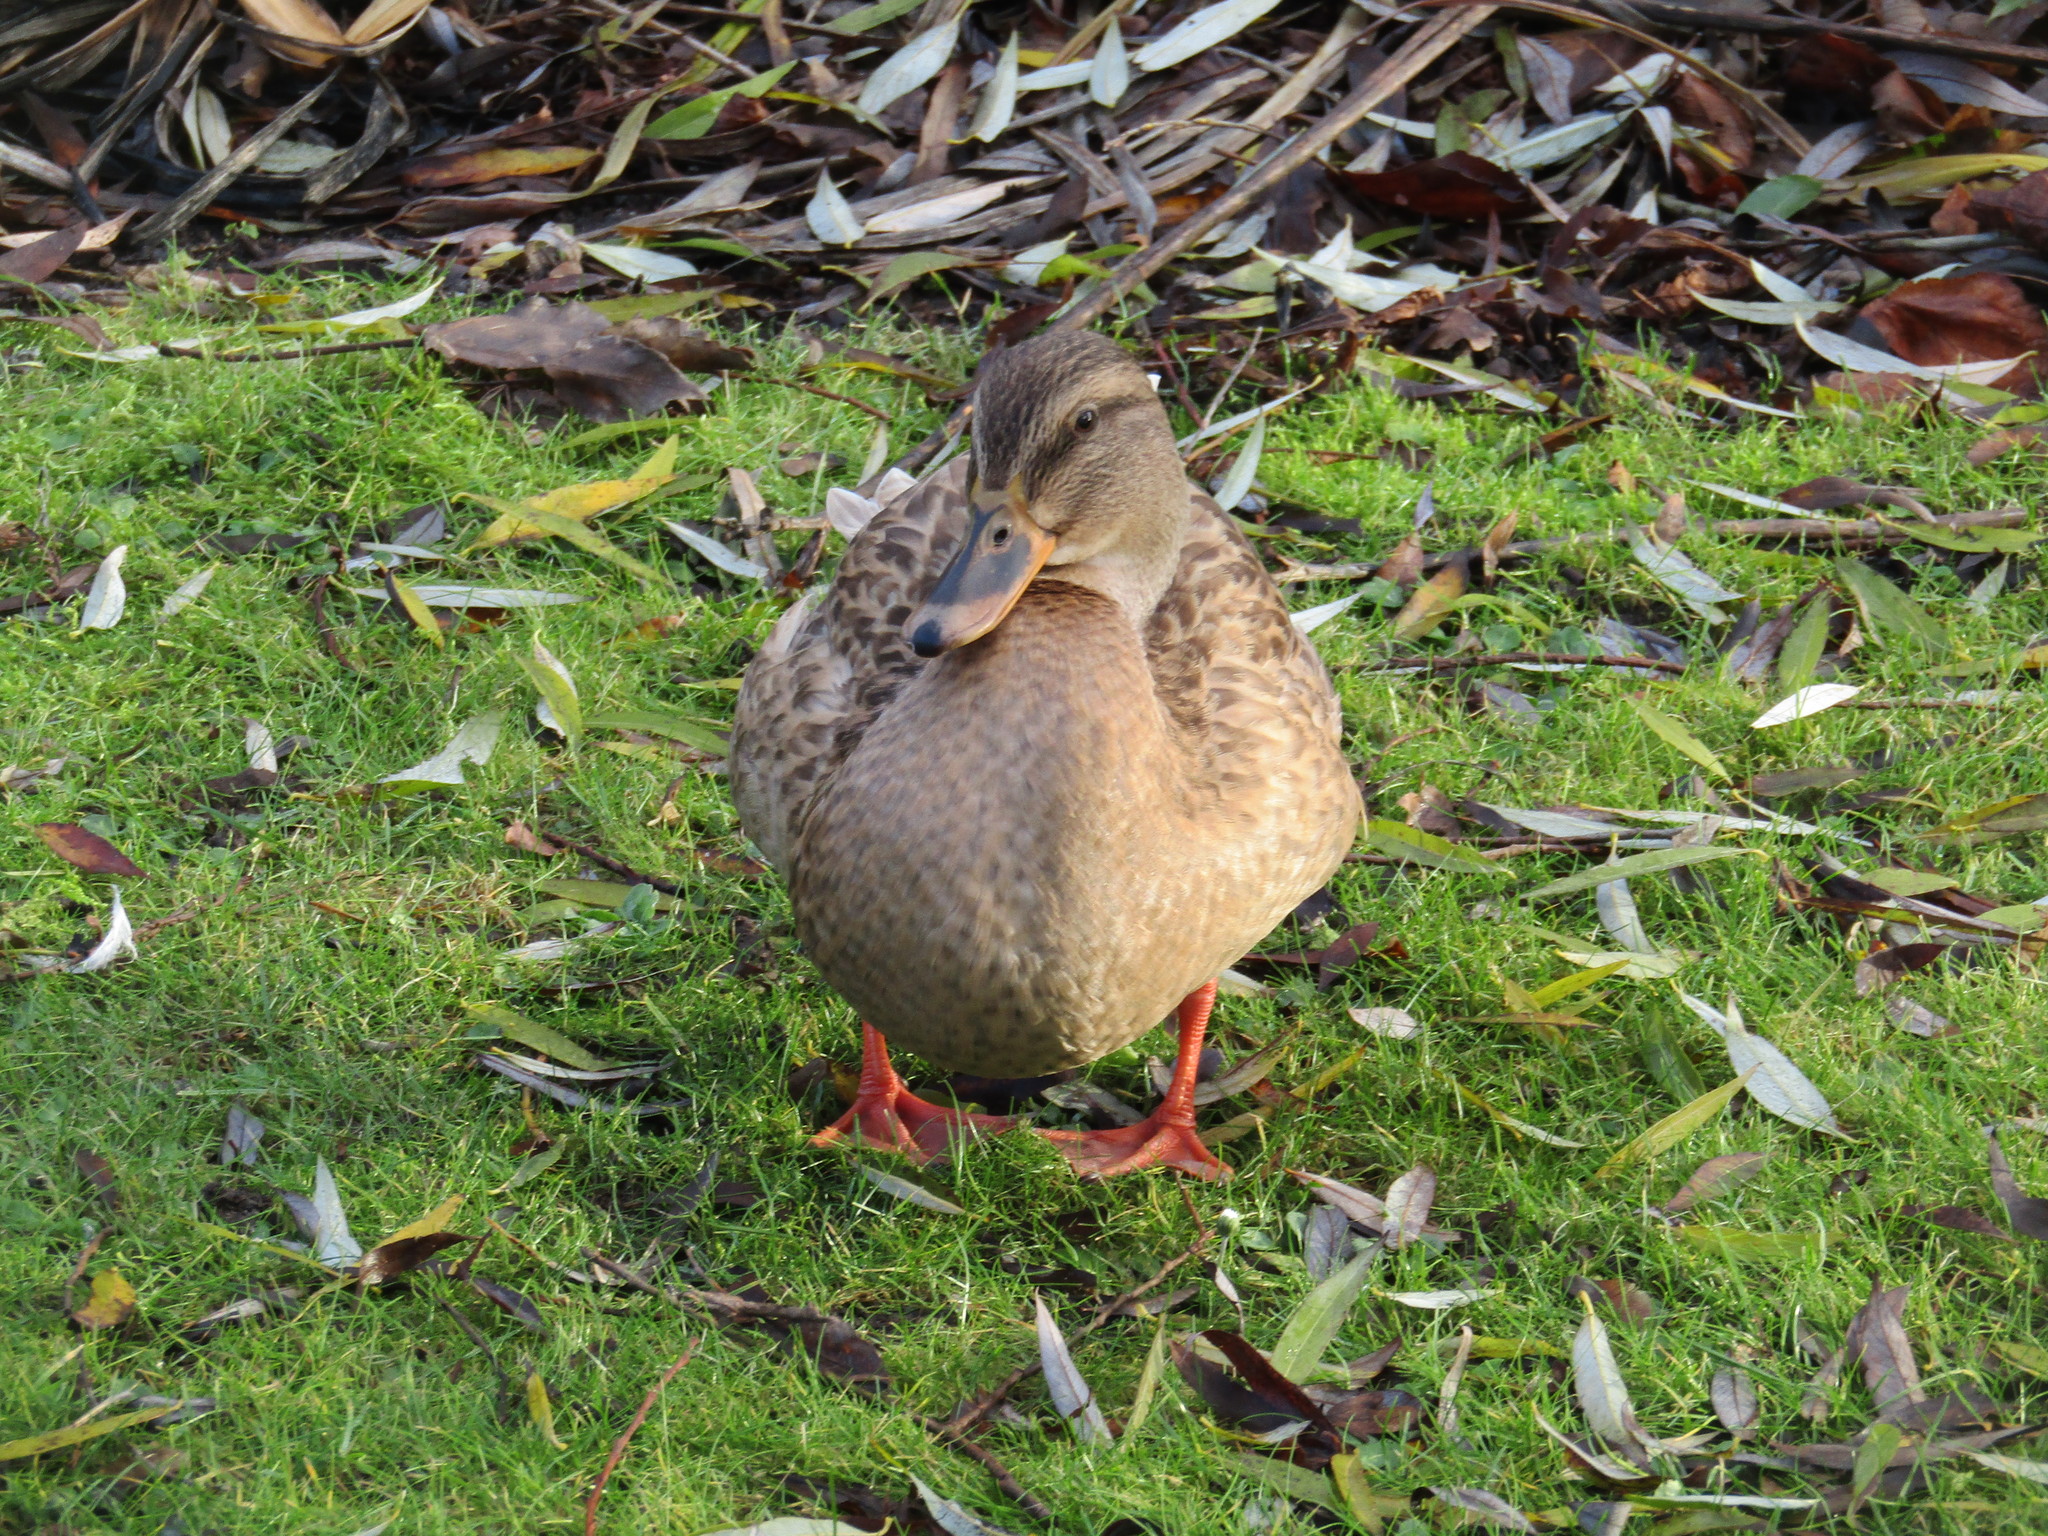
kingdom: Animalia
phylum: Chordata
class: Aves
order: Anseriformes
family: Anatidae
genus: Anas
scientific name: Anas platyrhynchos
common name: Mallard
